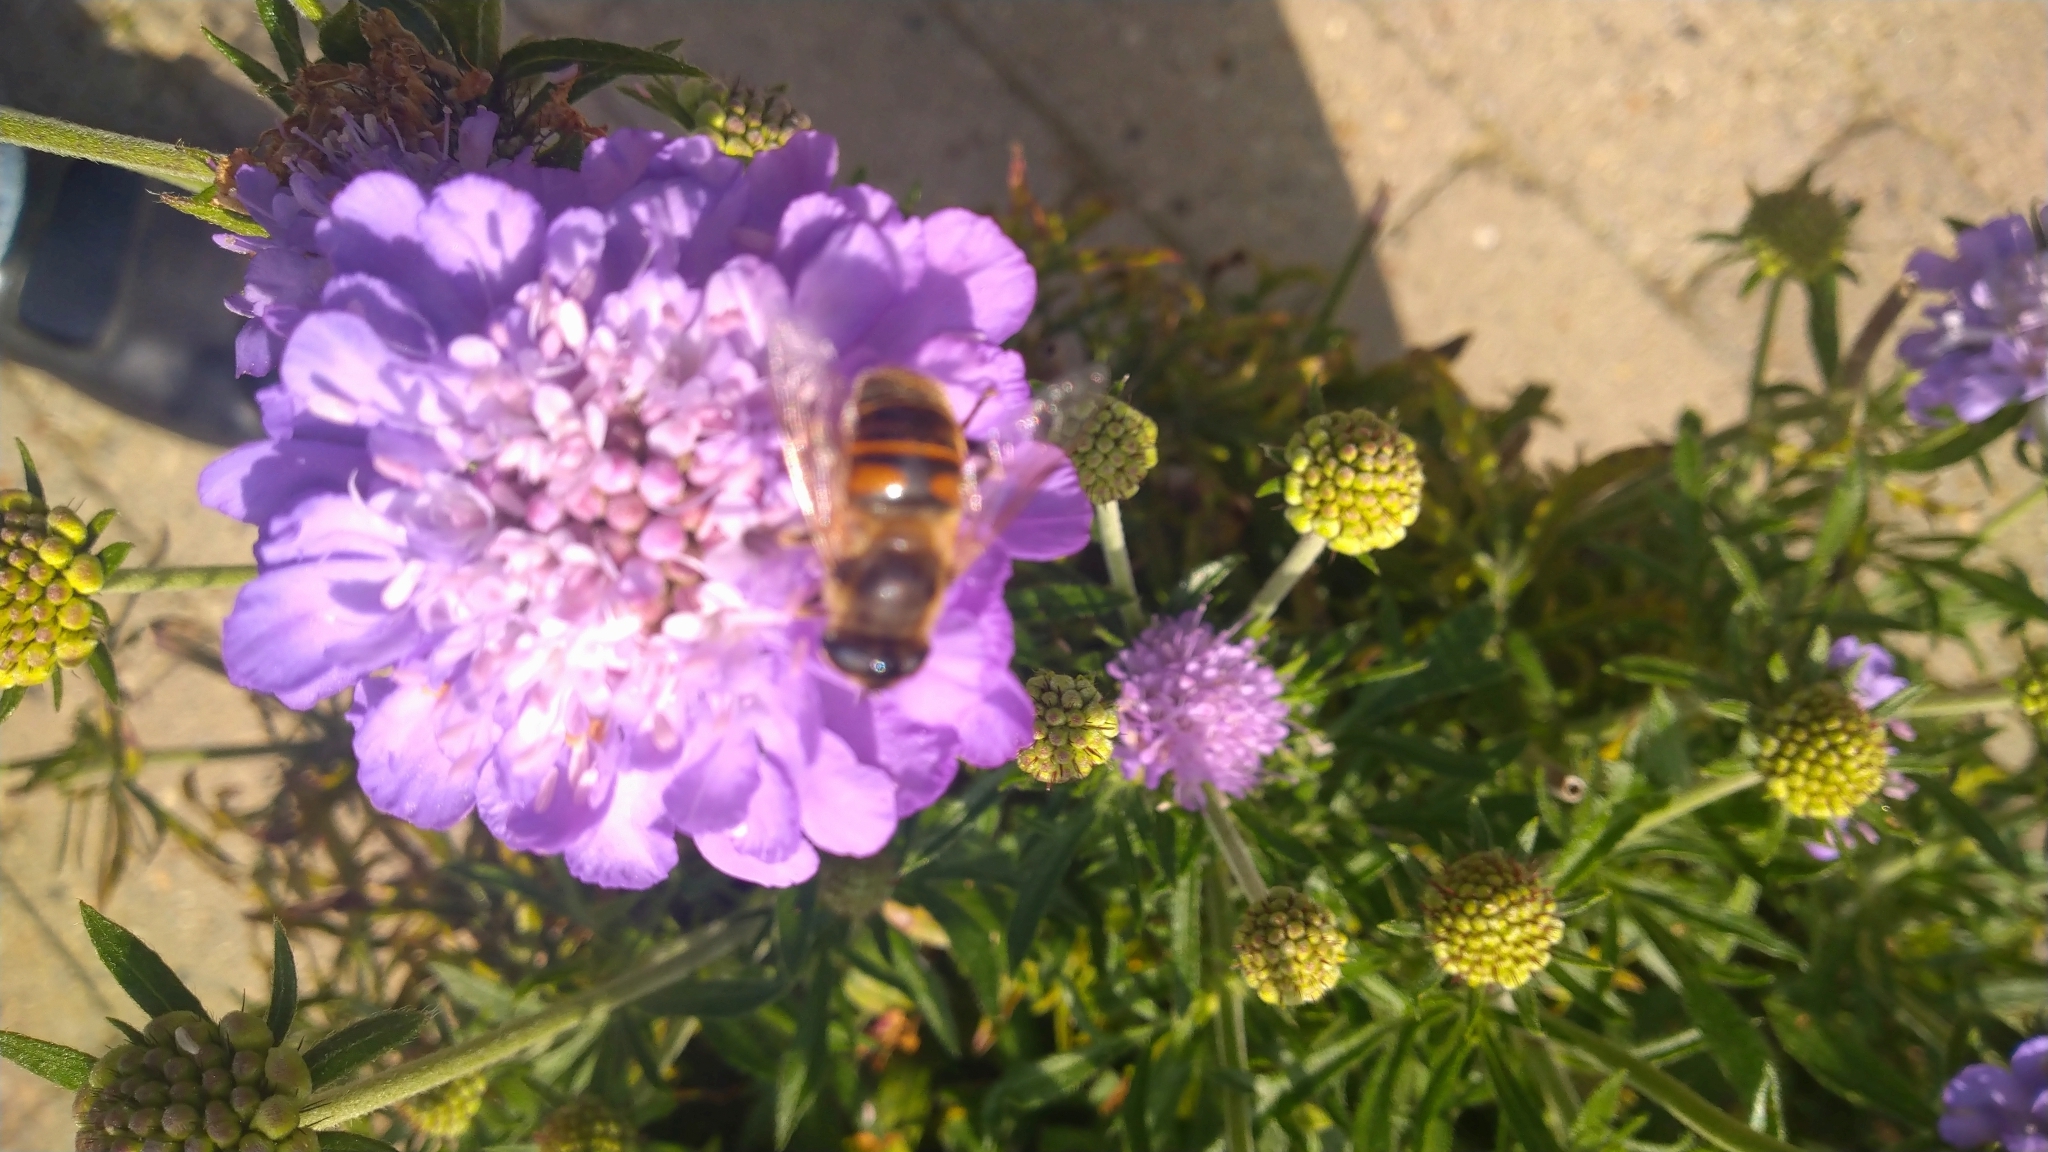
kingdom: Animalia
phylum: Arthropoda
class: Insecta
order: Diptera
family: Syrphidae
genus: Eristalis
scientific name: Eristalis tenax
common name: Drone fly
